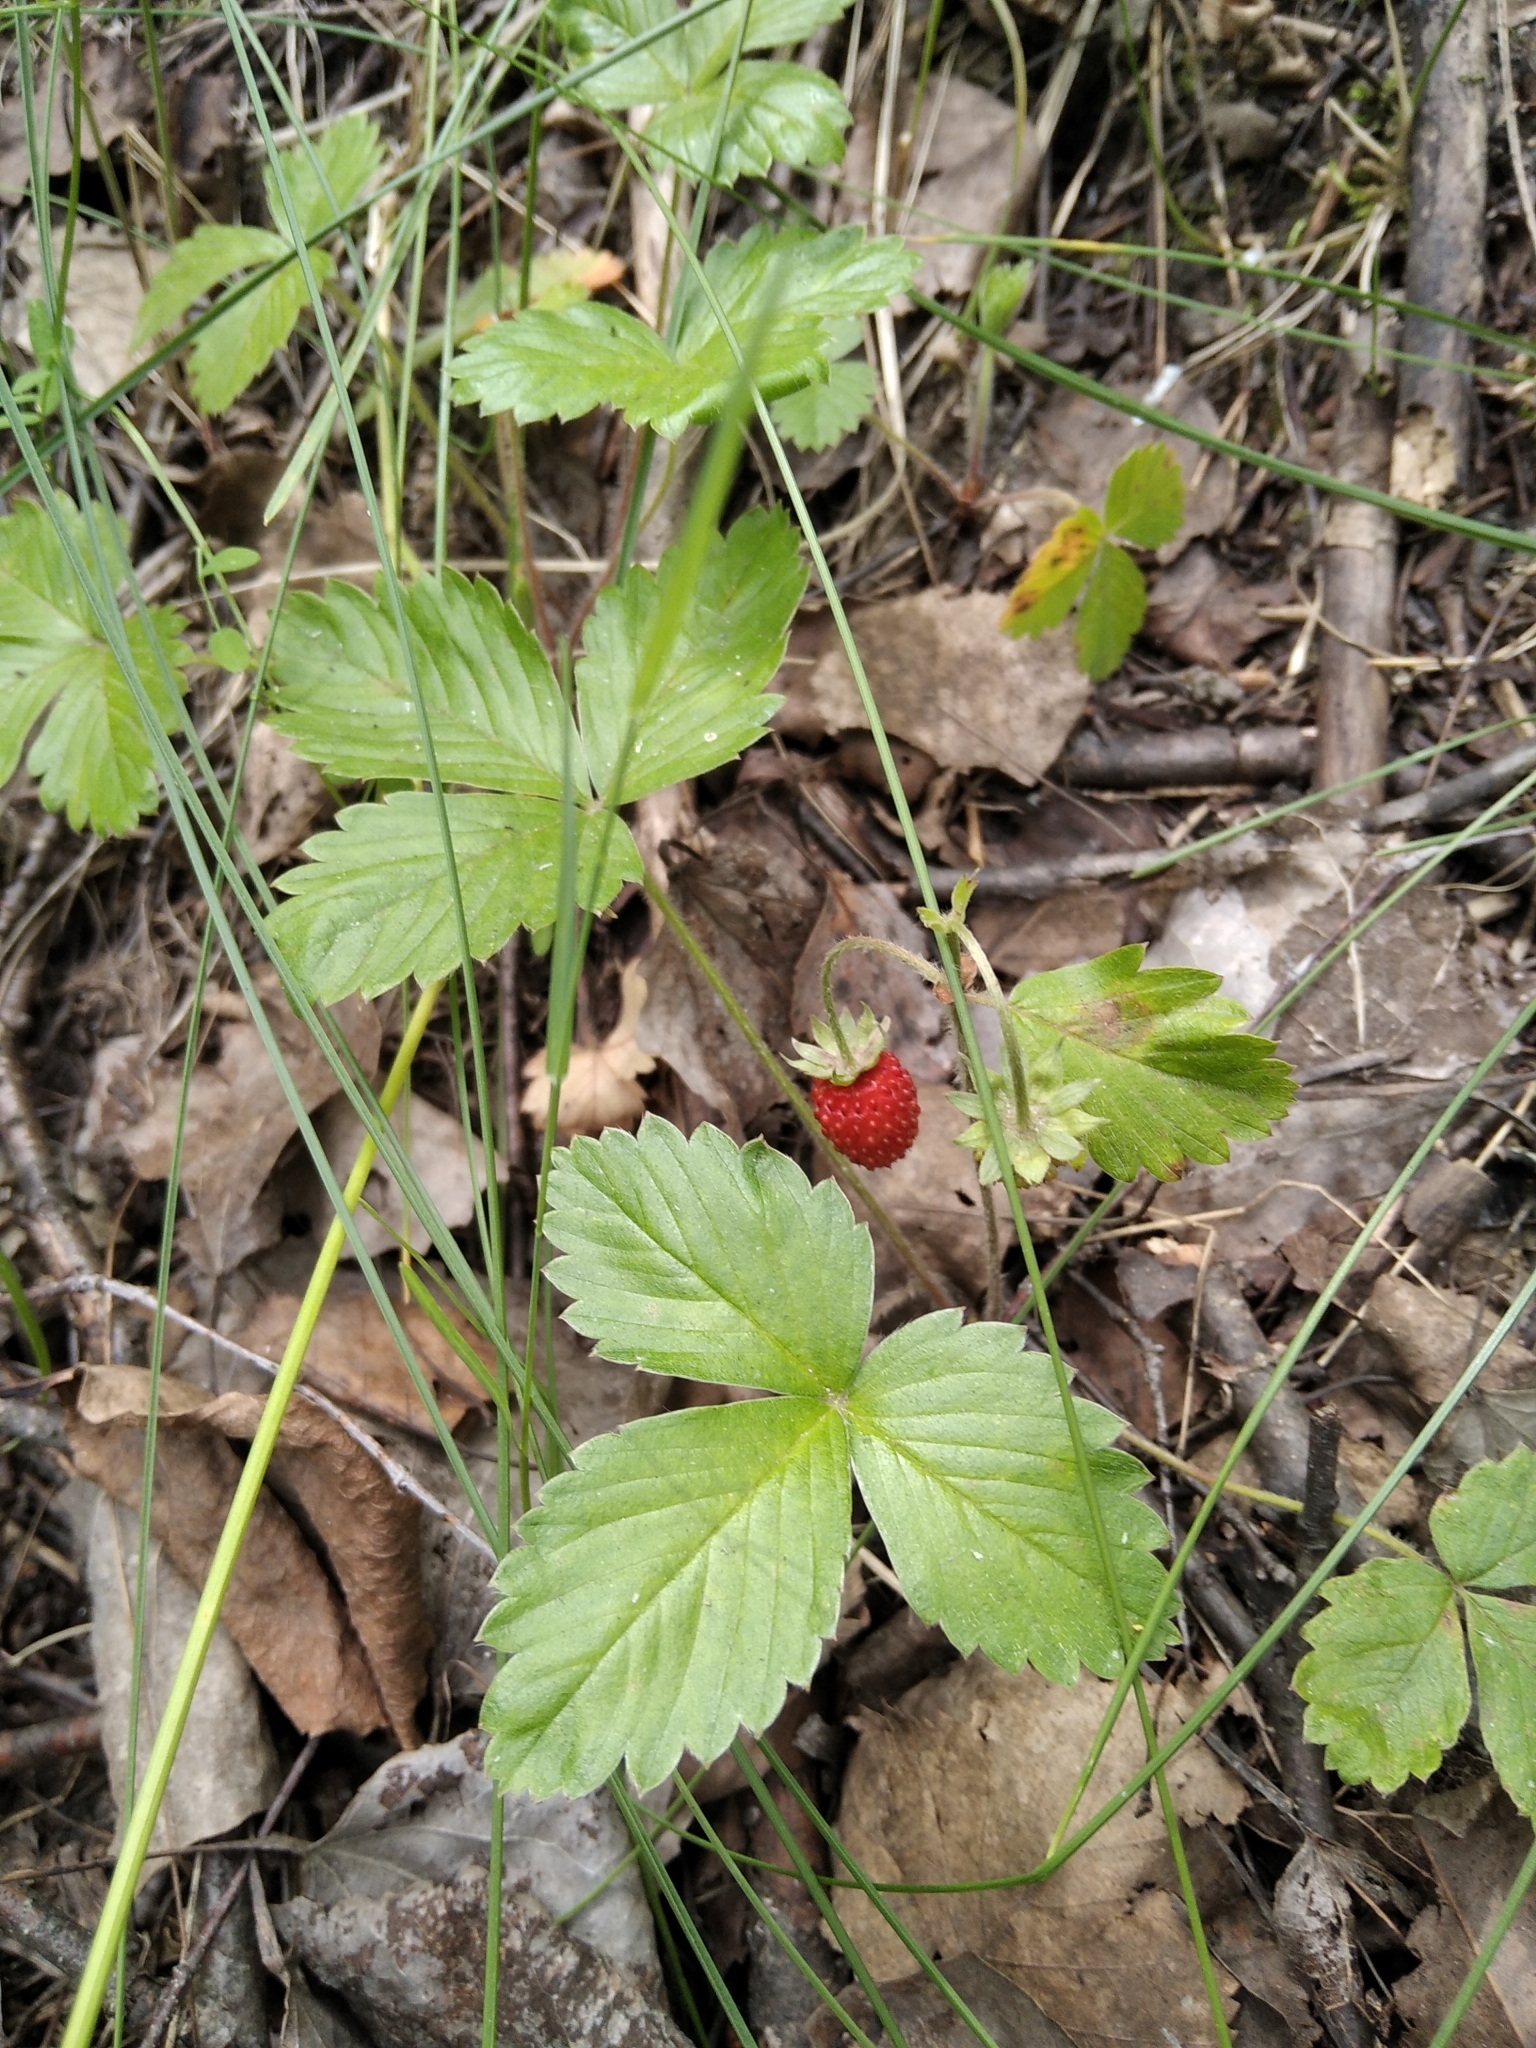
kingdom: Plantae
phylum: Tracheophyta
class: Magnoliopsida
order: Rosales
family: Rosaceae
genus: Fragaria
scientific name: Fragaria vesca
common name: Wild strawberry
